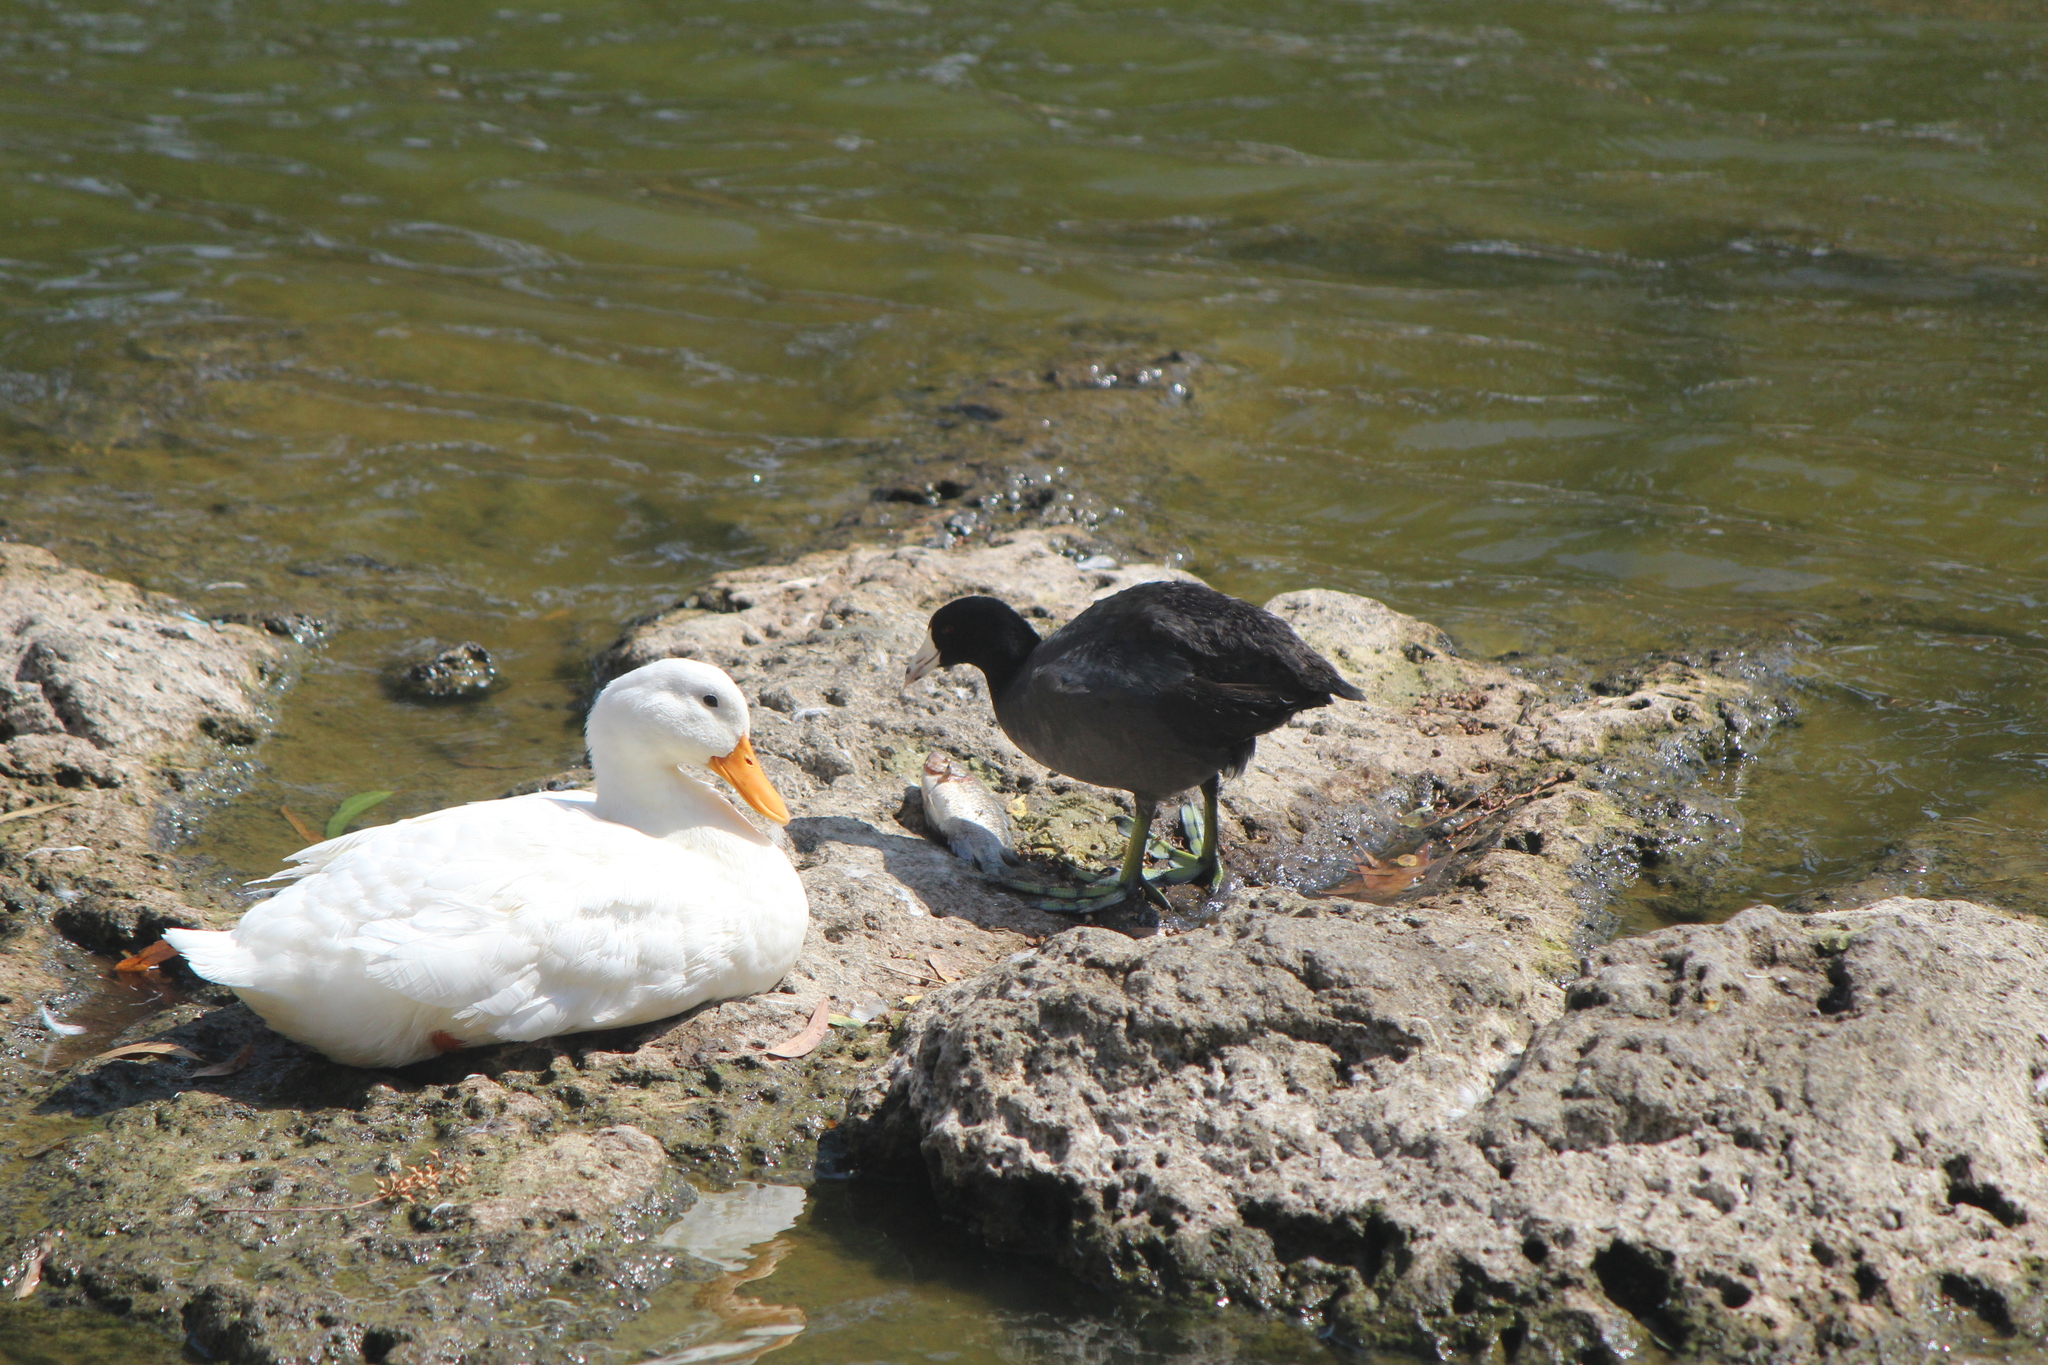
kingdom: Animalia
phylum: Chordata
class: Aves
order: Anseriformes
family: Anatidae
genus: Anas
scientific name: Anas platyrhynchos
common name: Mallard
